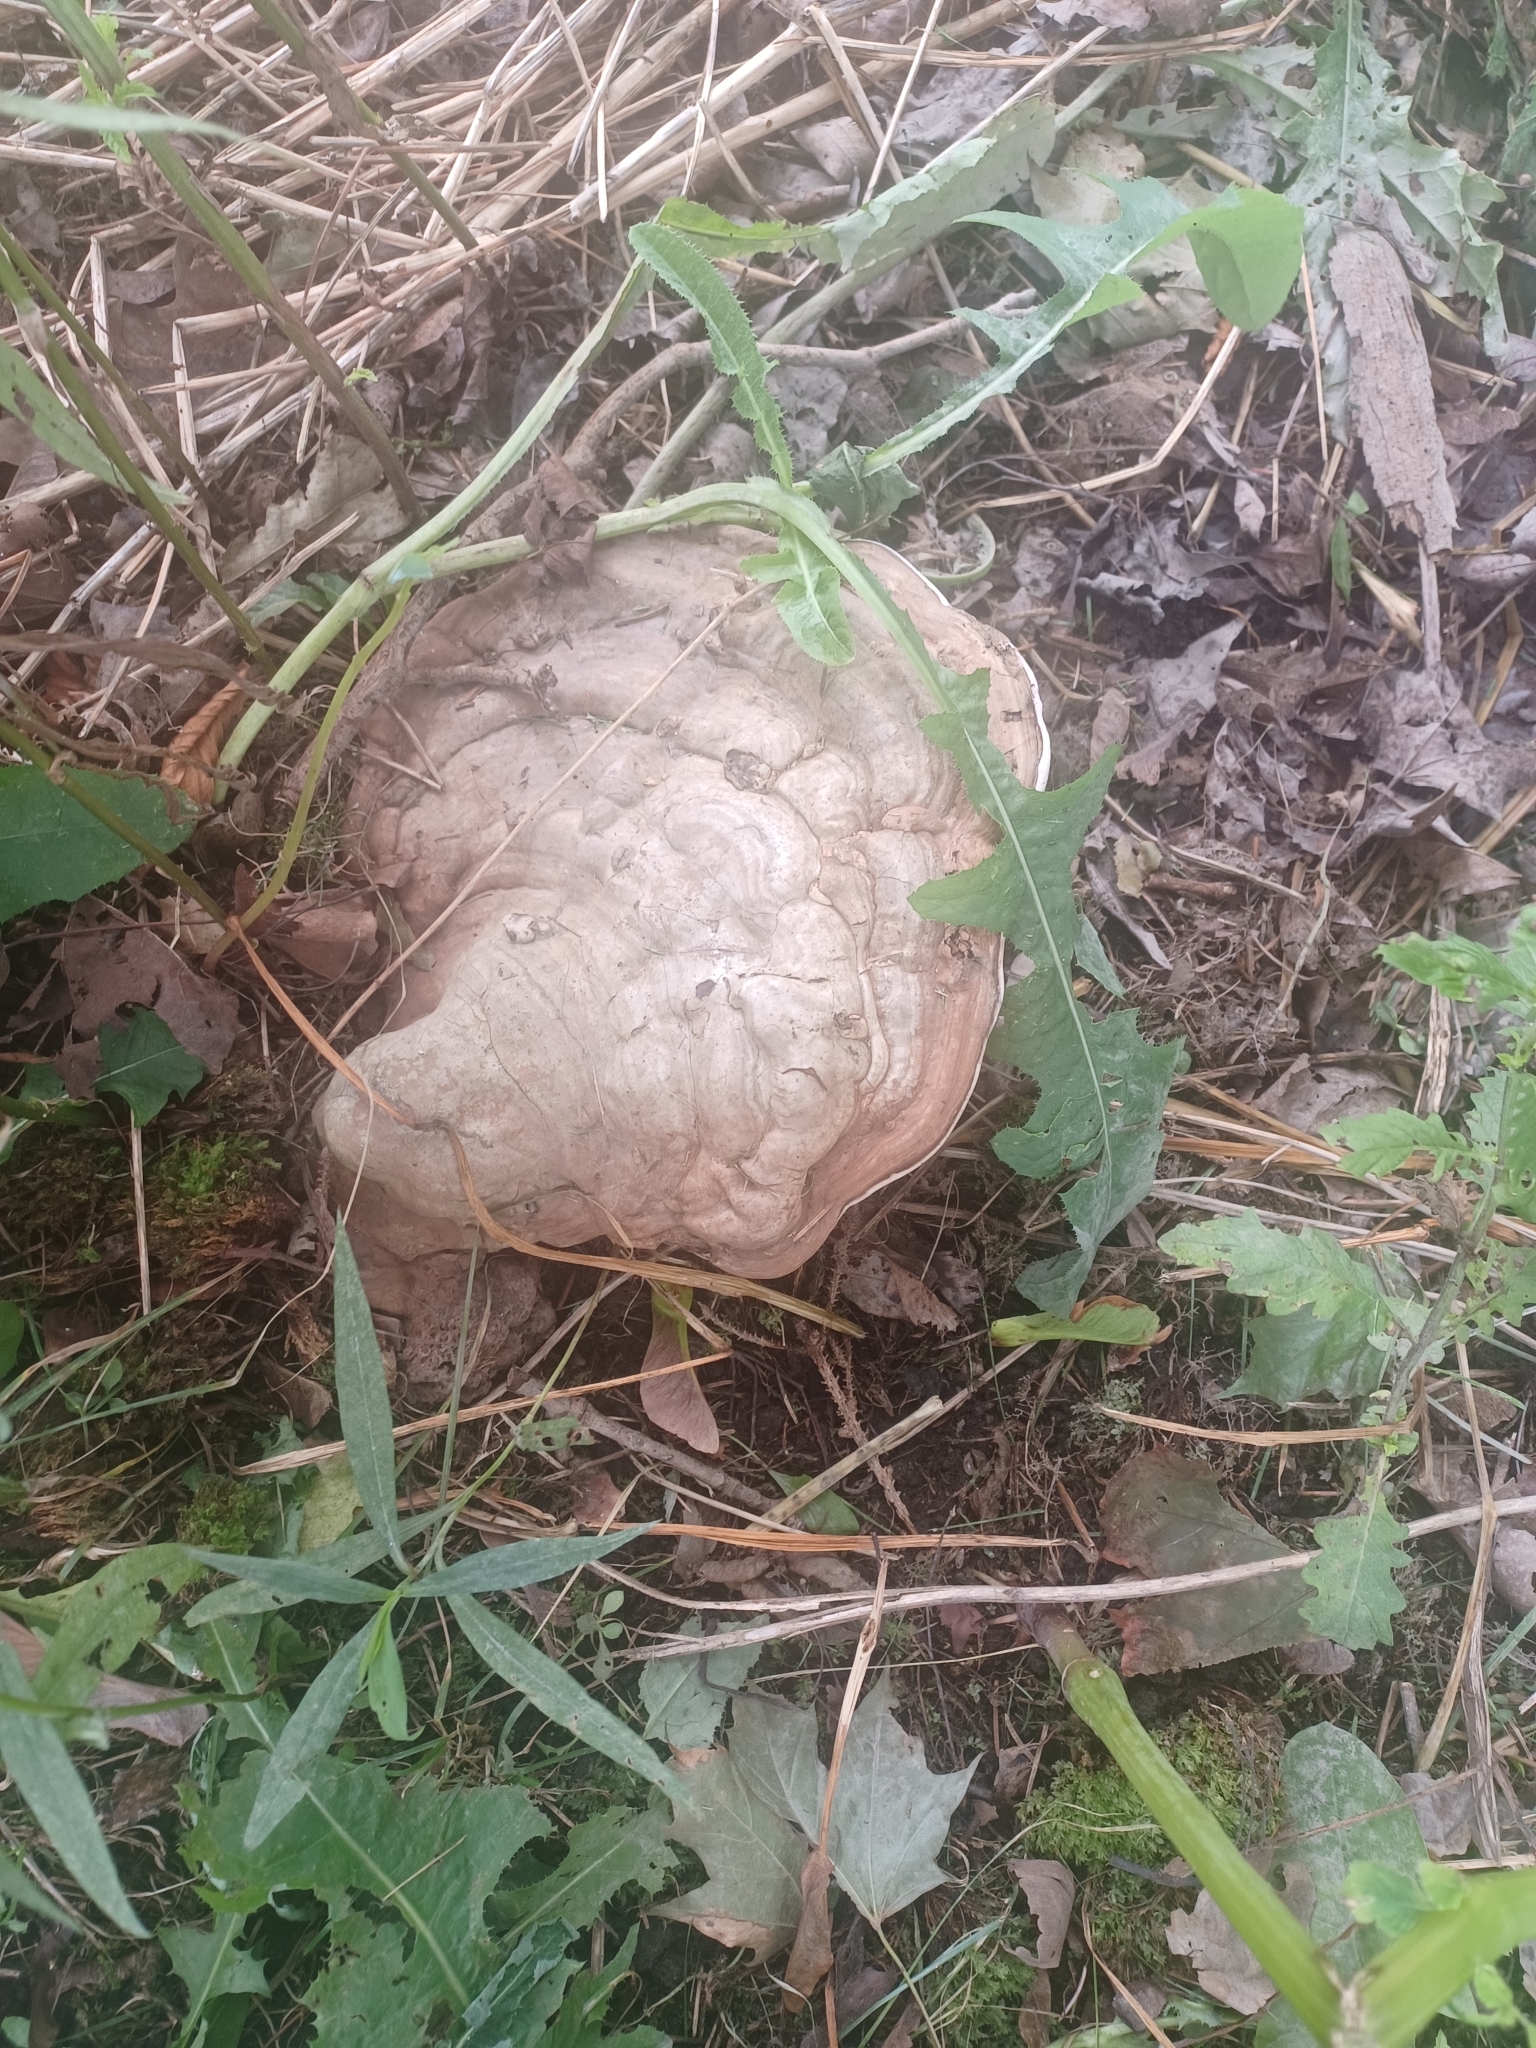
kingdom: Fungi
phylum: Basidiomycota
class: Agaricomycetes
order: Polyporales
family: Polyporaceae
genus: Ganoderma
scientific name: Ganoderma applanatum
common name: Artist's bracket
